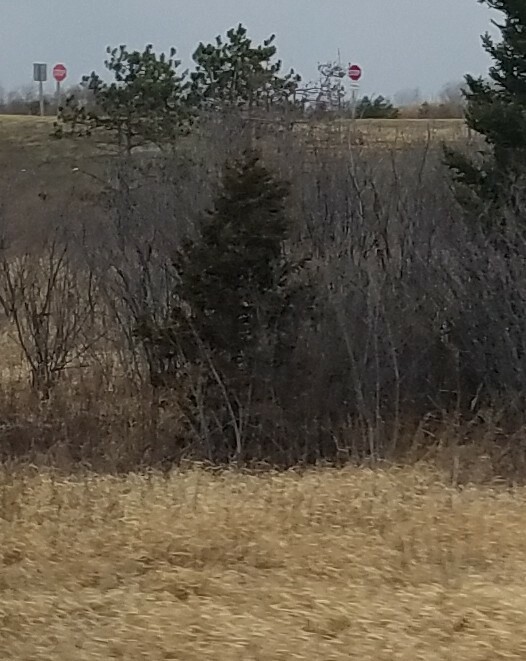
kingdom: Plantae
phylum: Tracheophyta
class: Pinopsida
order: Pinales
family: Cupressaceae
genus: Juniperus
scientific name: Juniperus virginiana
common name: Red juniper
